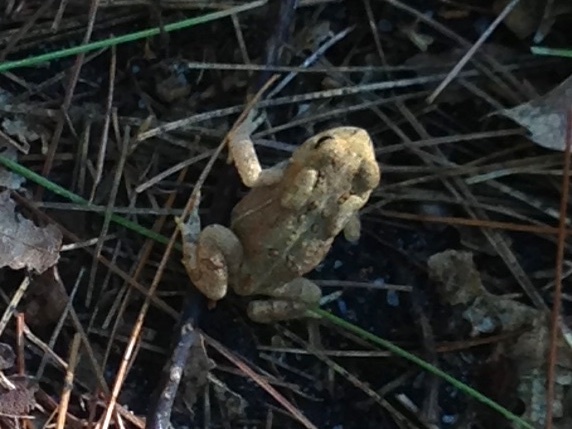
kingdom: Animalia
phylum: Chordata
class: Amphibia
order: Anura
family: Bufonidae
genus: Anaxyrus
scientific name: Anaxyrus americanus
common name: American toad
